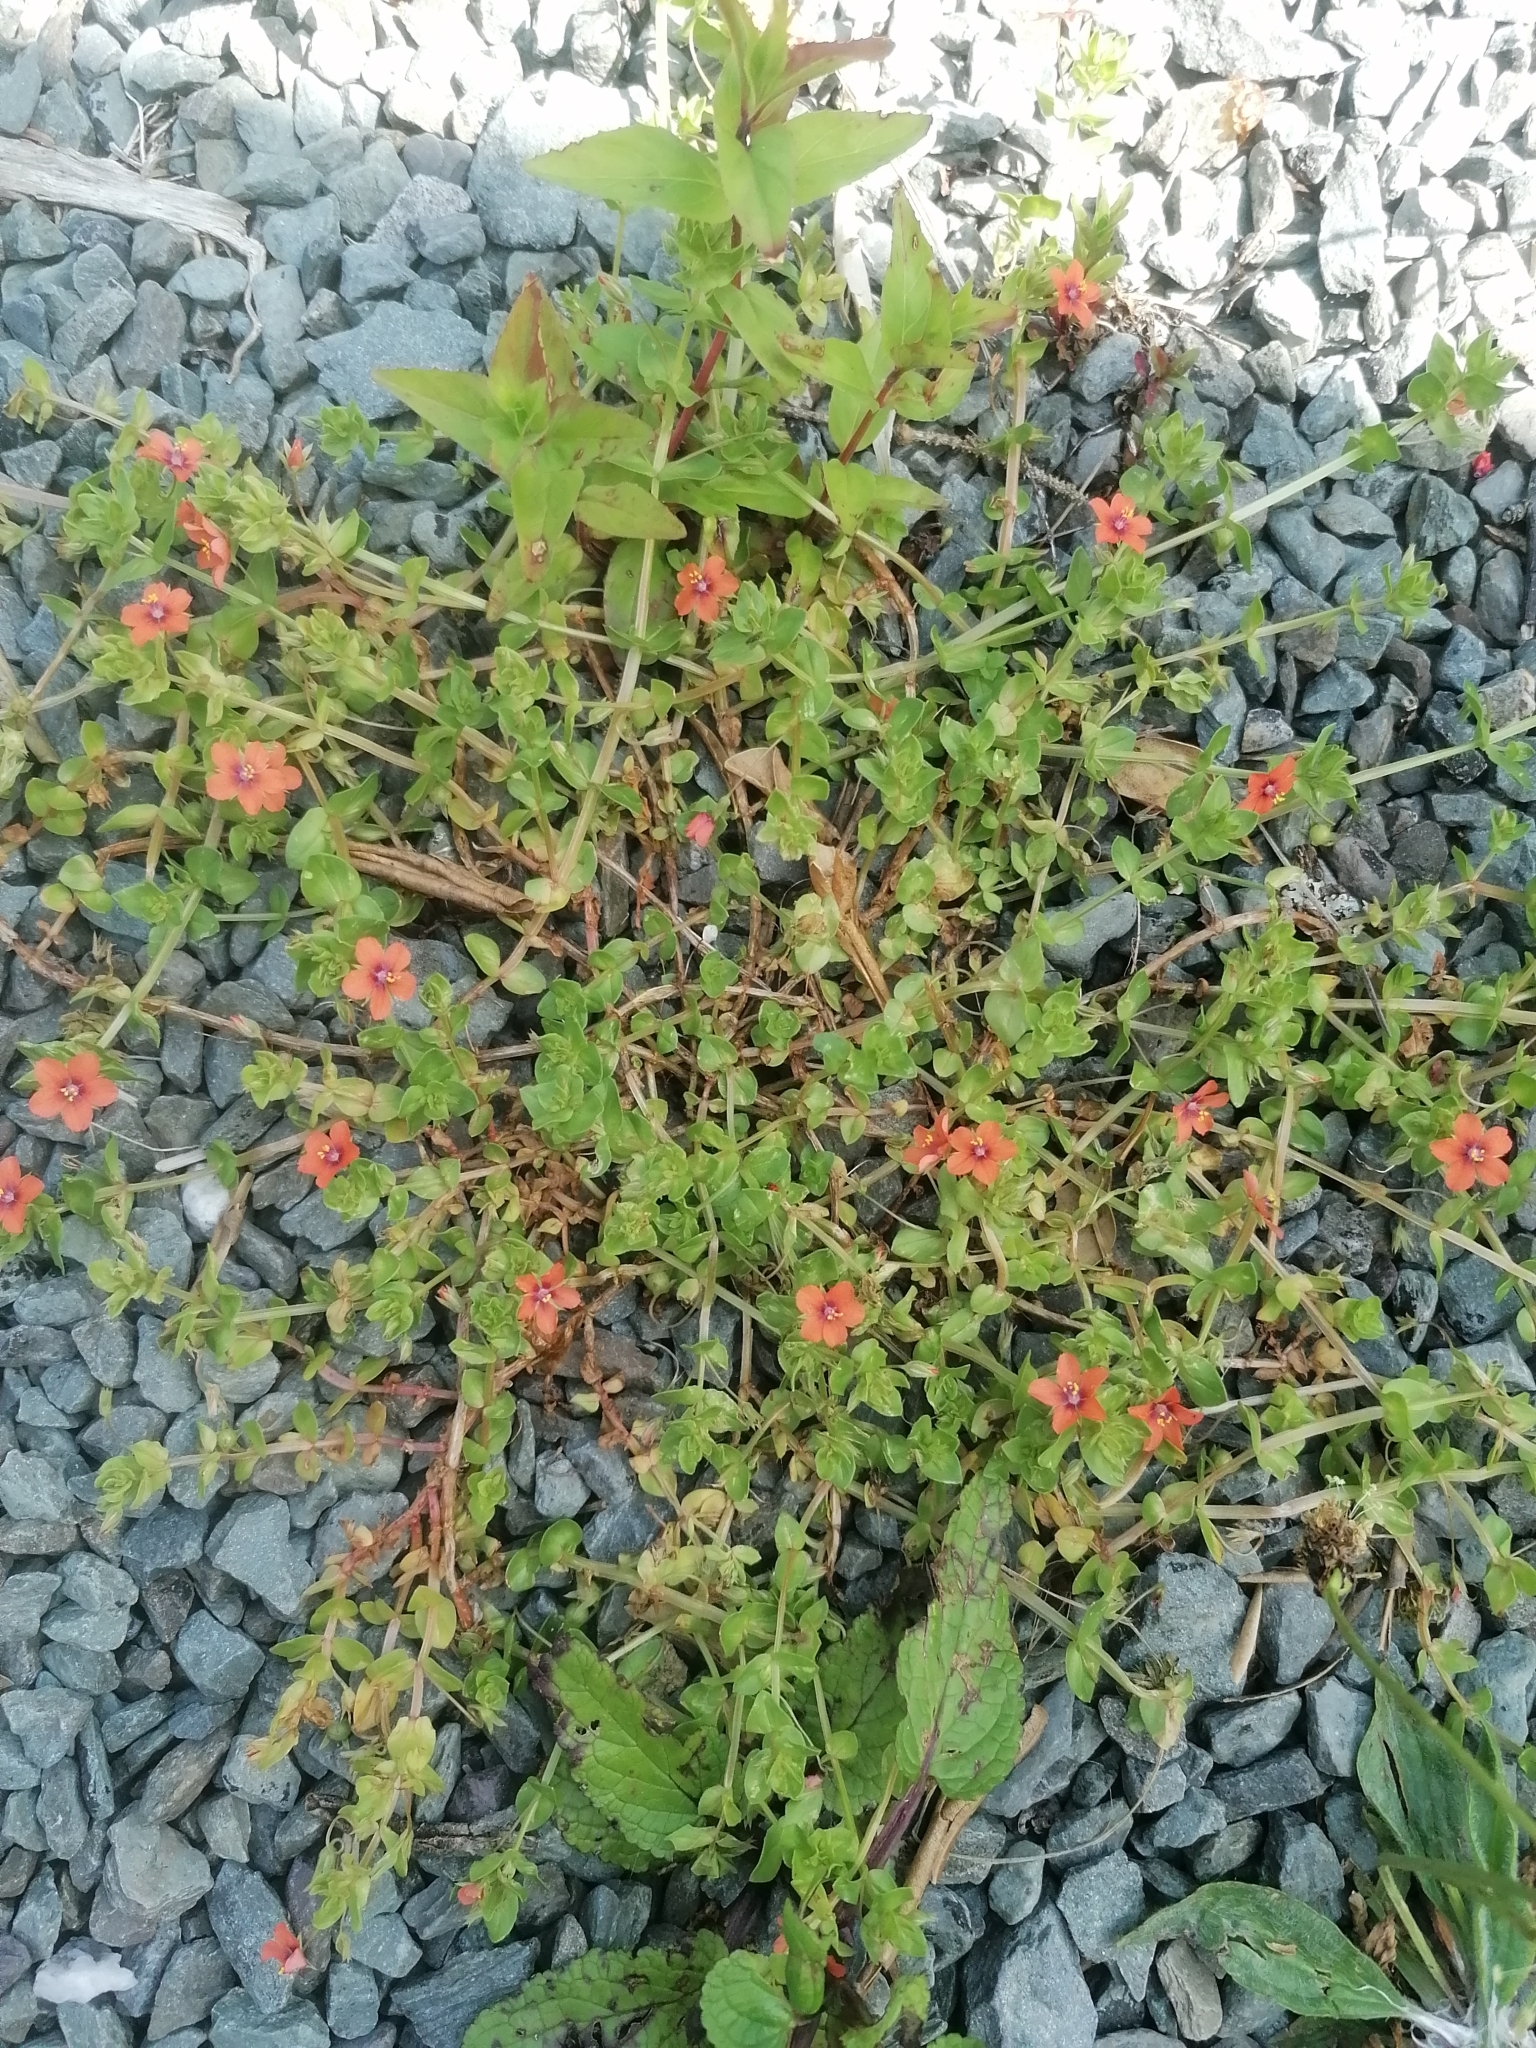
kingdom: Plantae
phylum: Tracheophyta
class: Magnoliopsida
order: Ericales
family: Primulaceae
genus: Lysimachia
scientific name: Lysimachia arvensis
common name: Scarlet pimpernel
